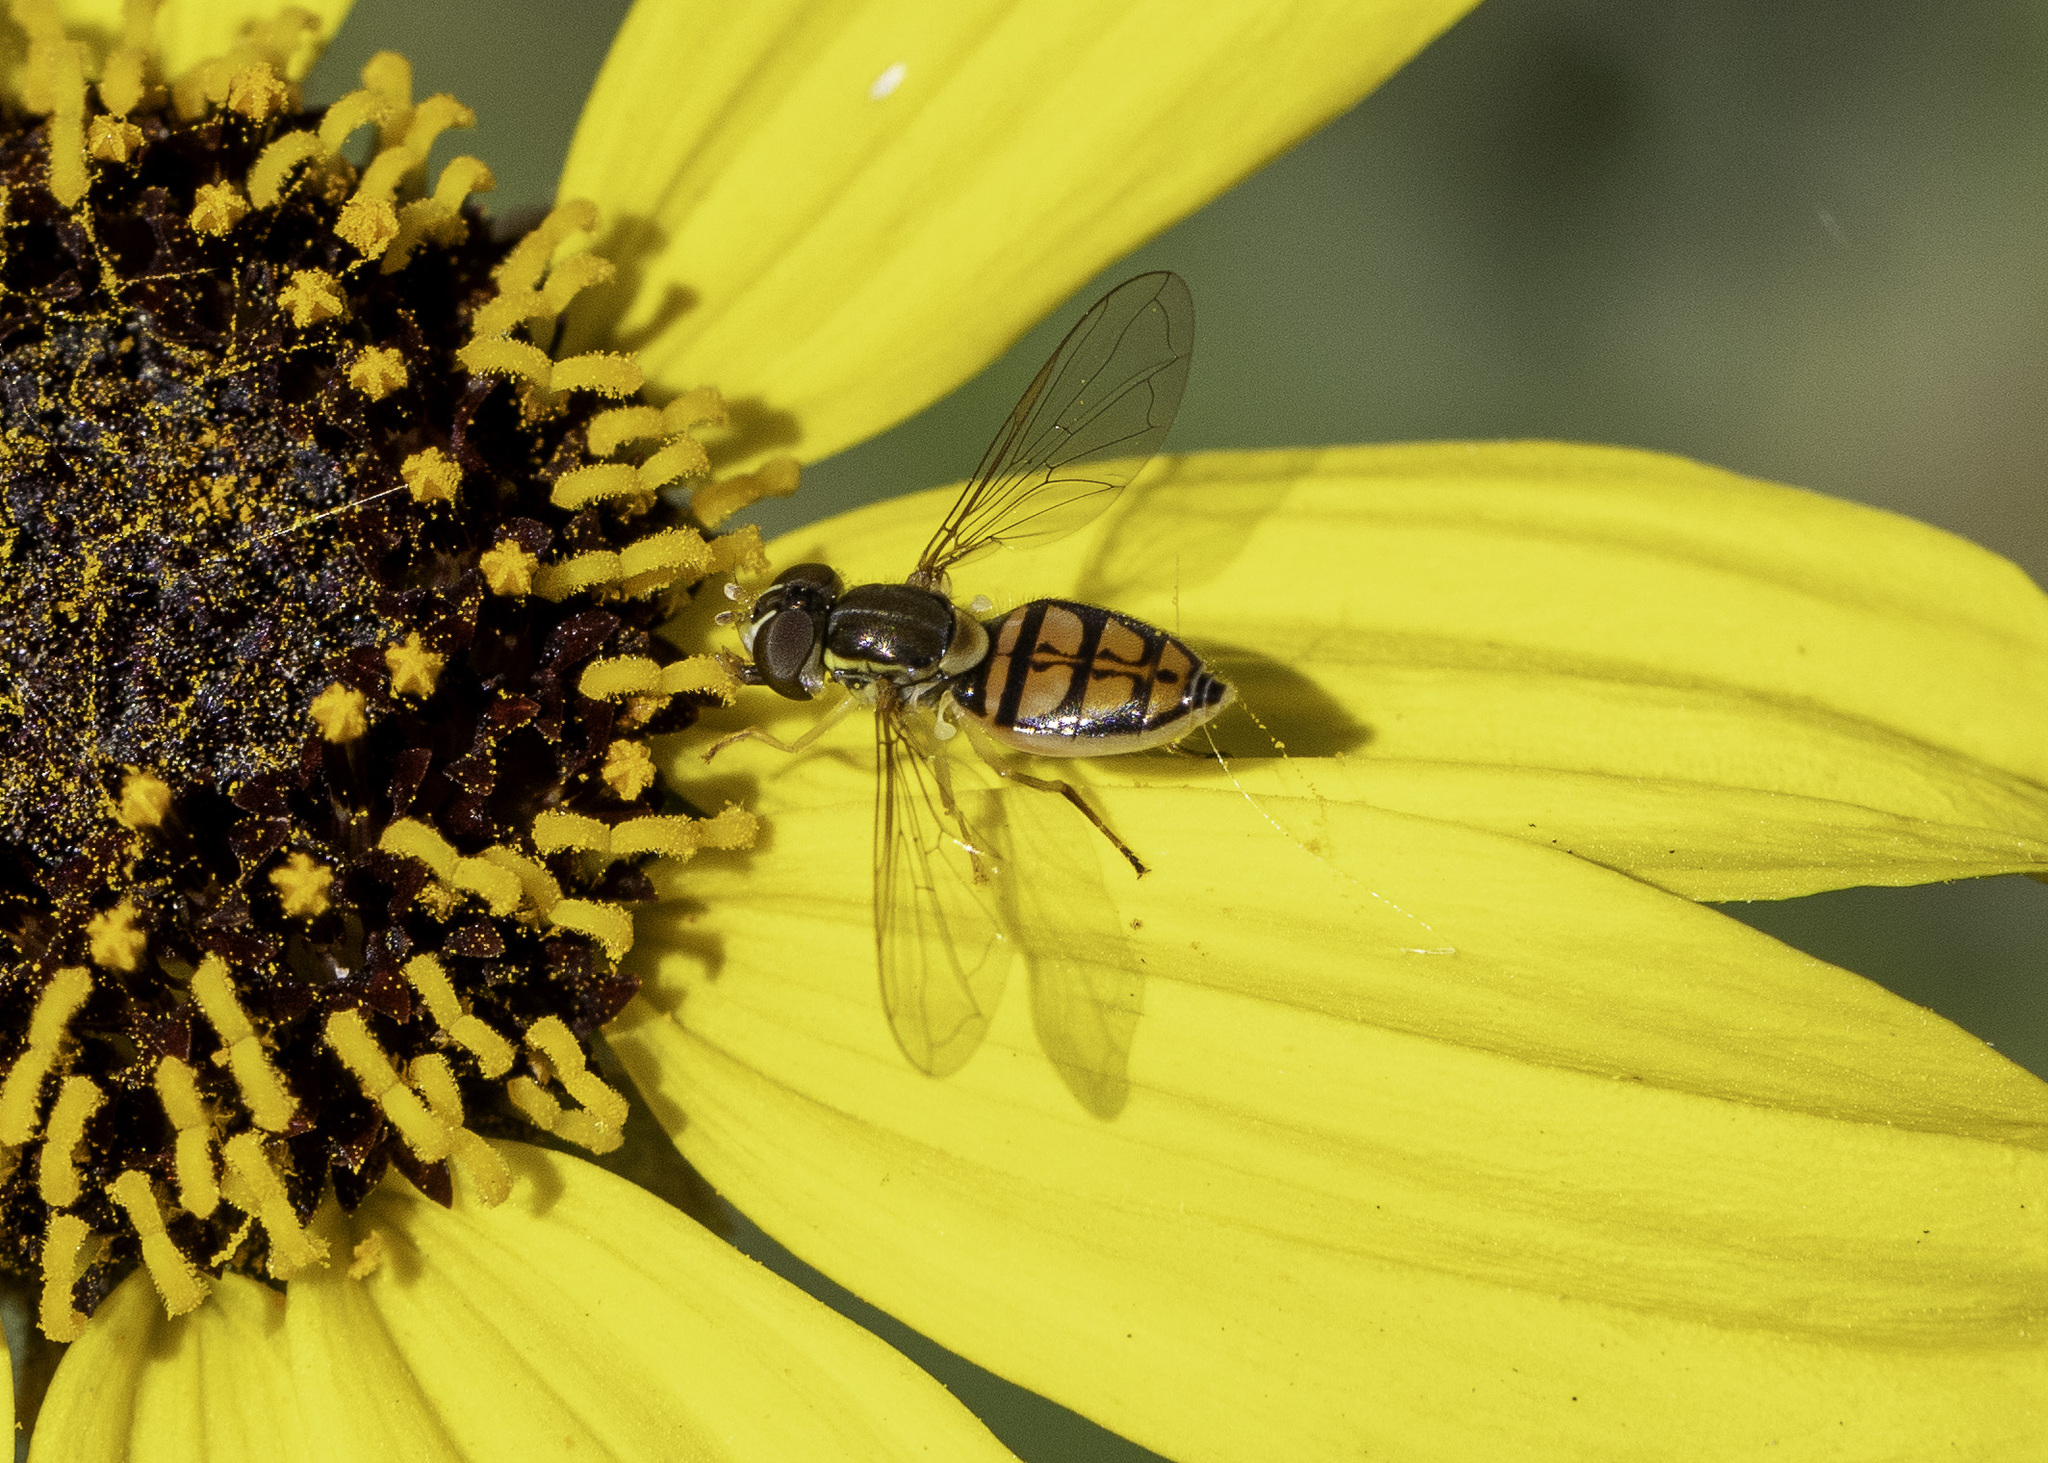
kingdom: Animalia
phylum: Arthropoda
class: Insecta
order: Diptera
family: Syrphidae
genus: Toxomerus
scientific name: Toxomerus marginatus
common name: Syrphid fly
